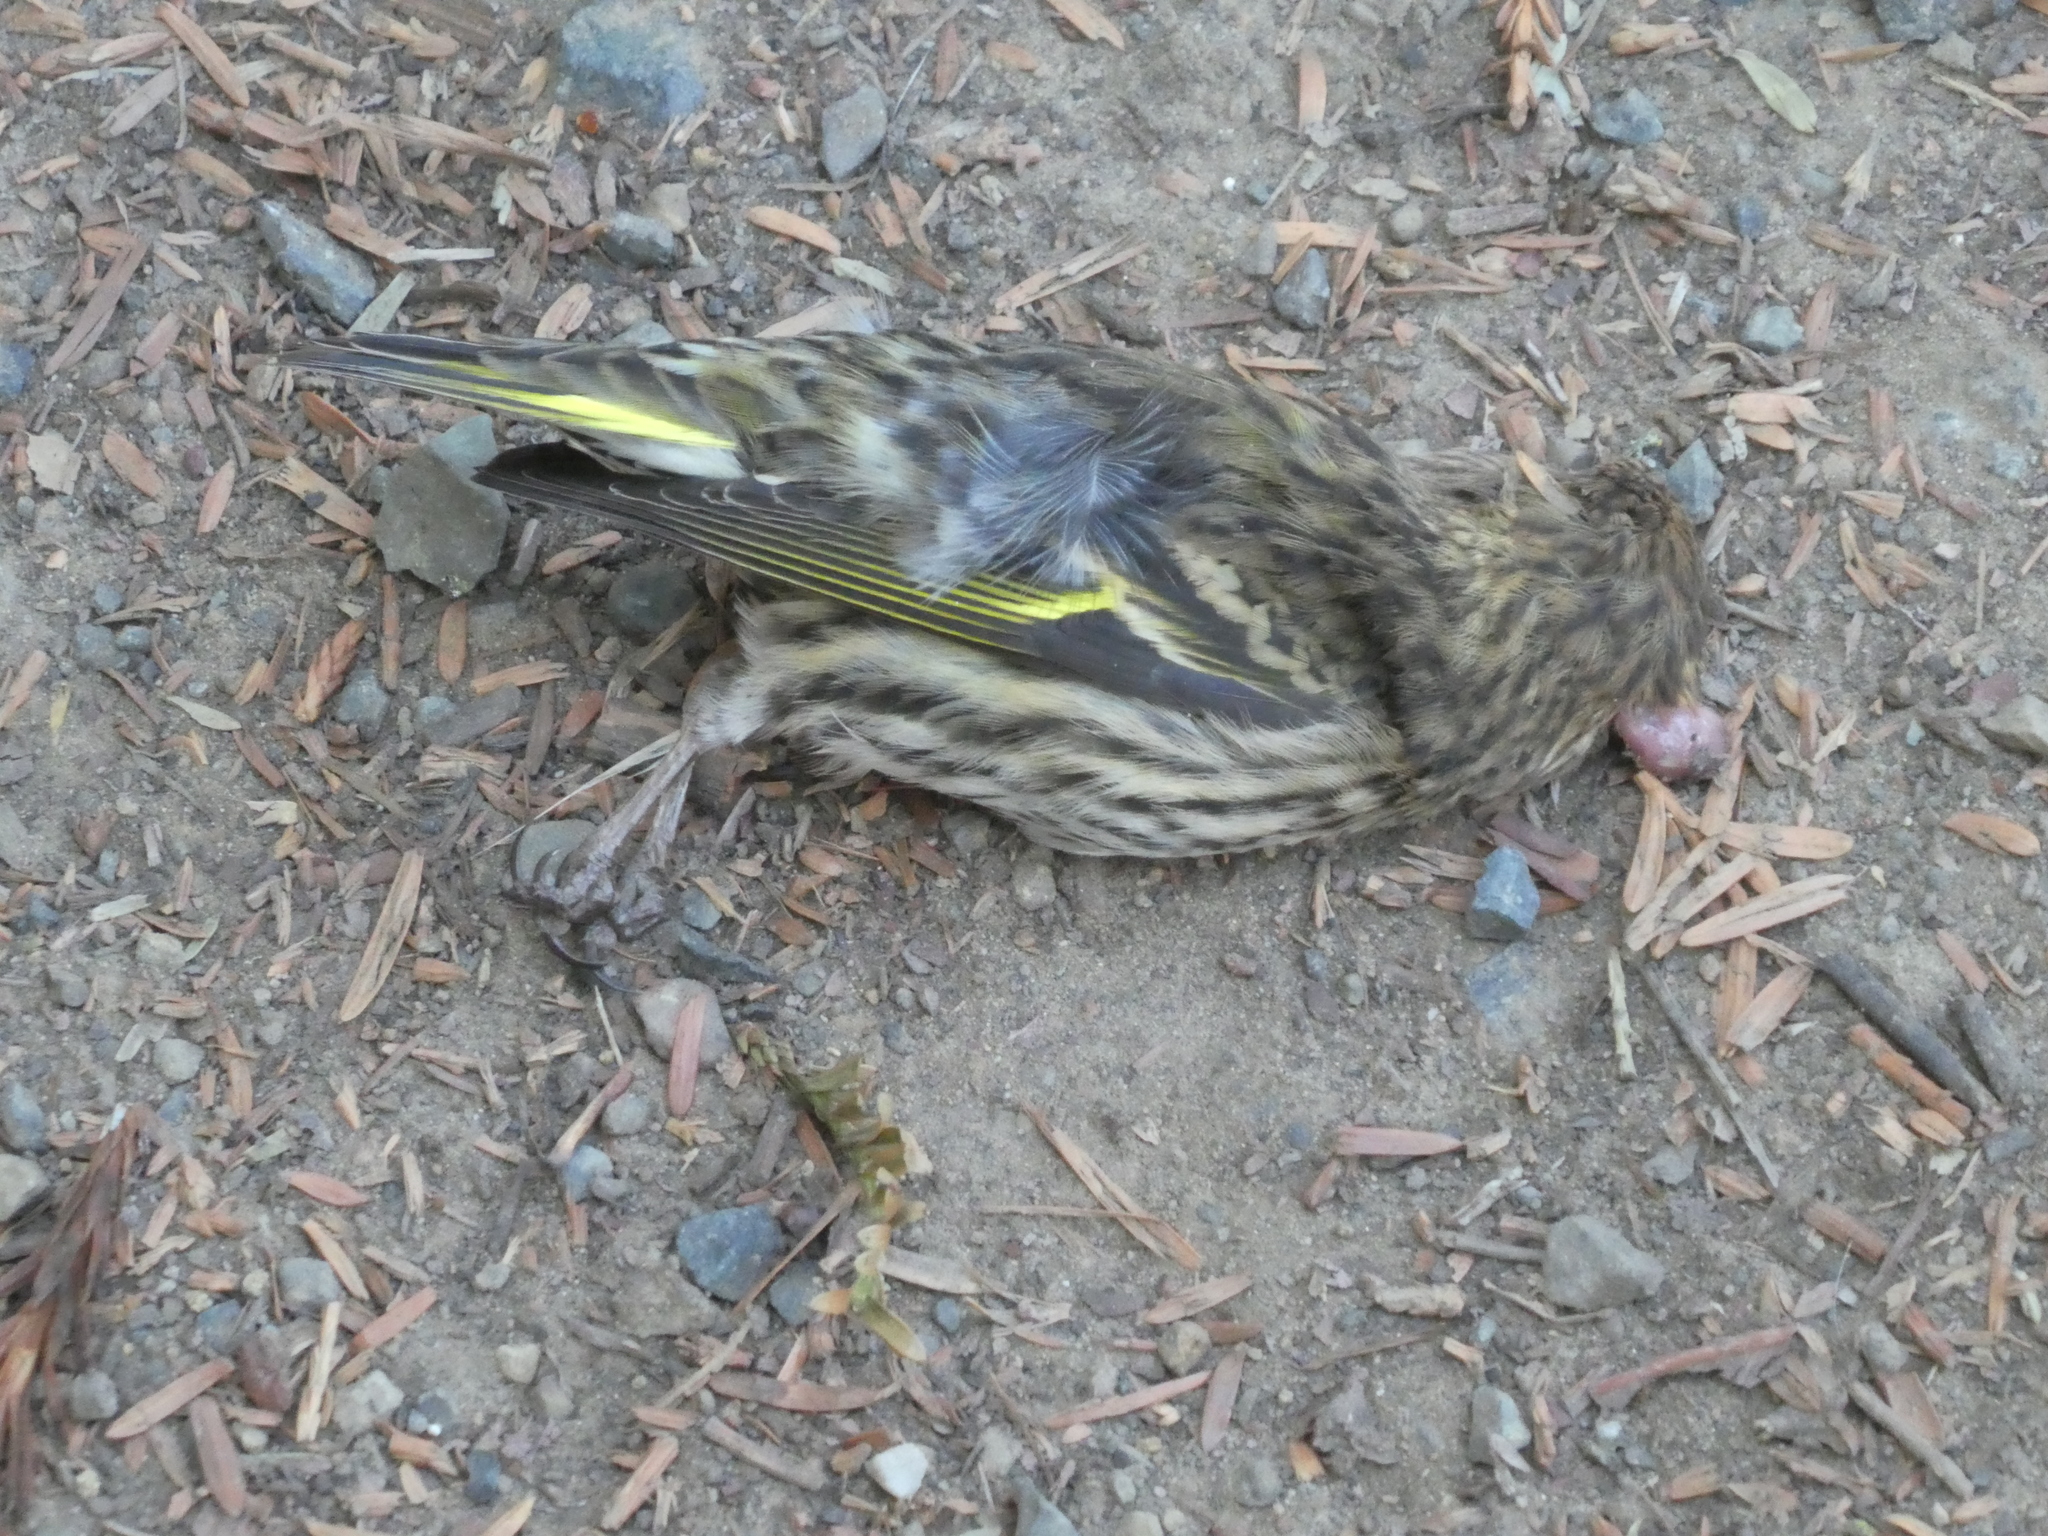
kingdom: Animalia
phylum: Chordata
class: Aves
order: Passeriformes
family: Fringillidae
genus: Spinus
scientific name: Spinus pinus
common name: Pine siskin
